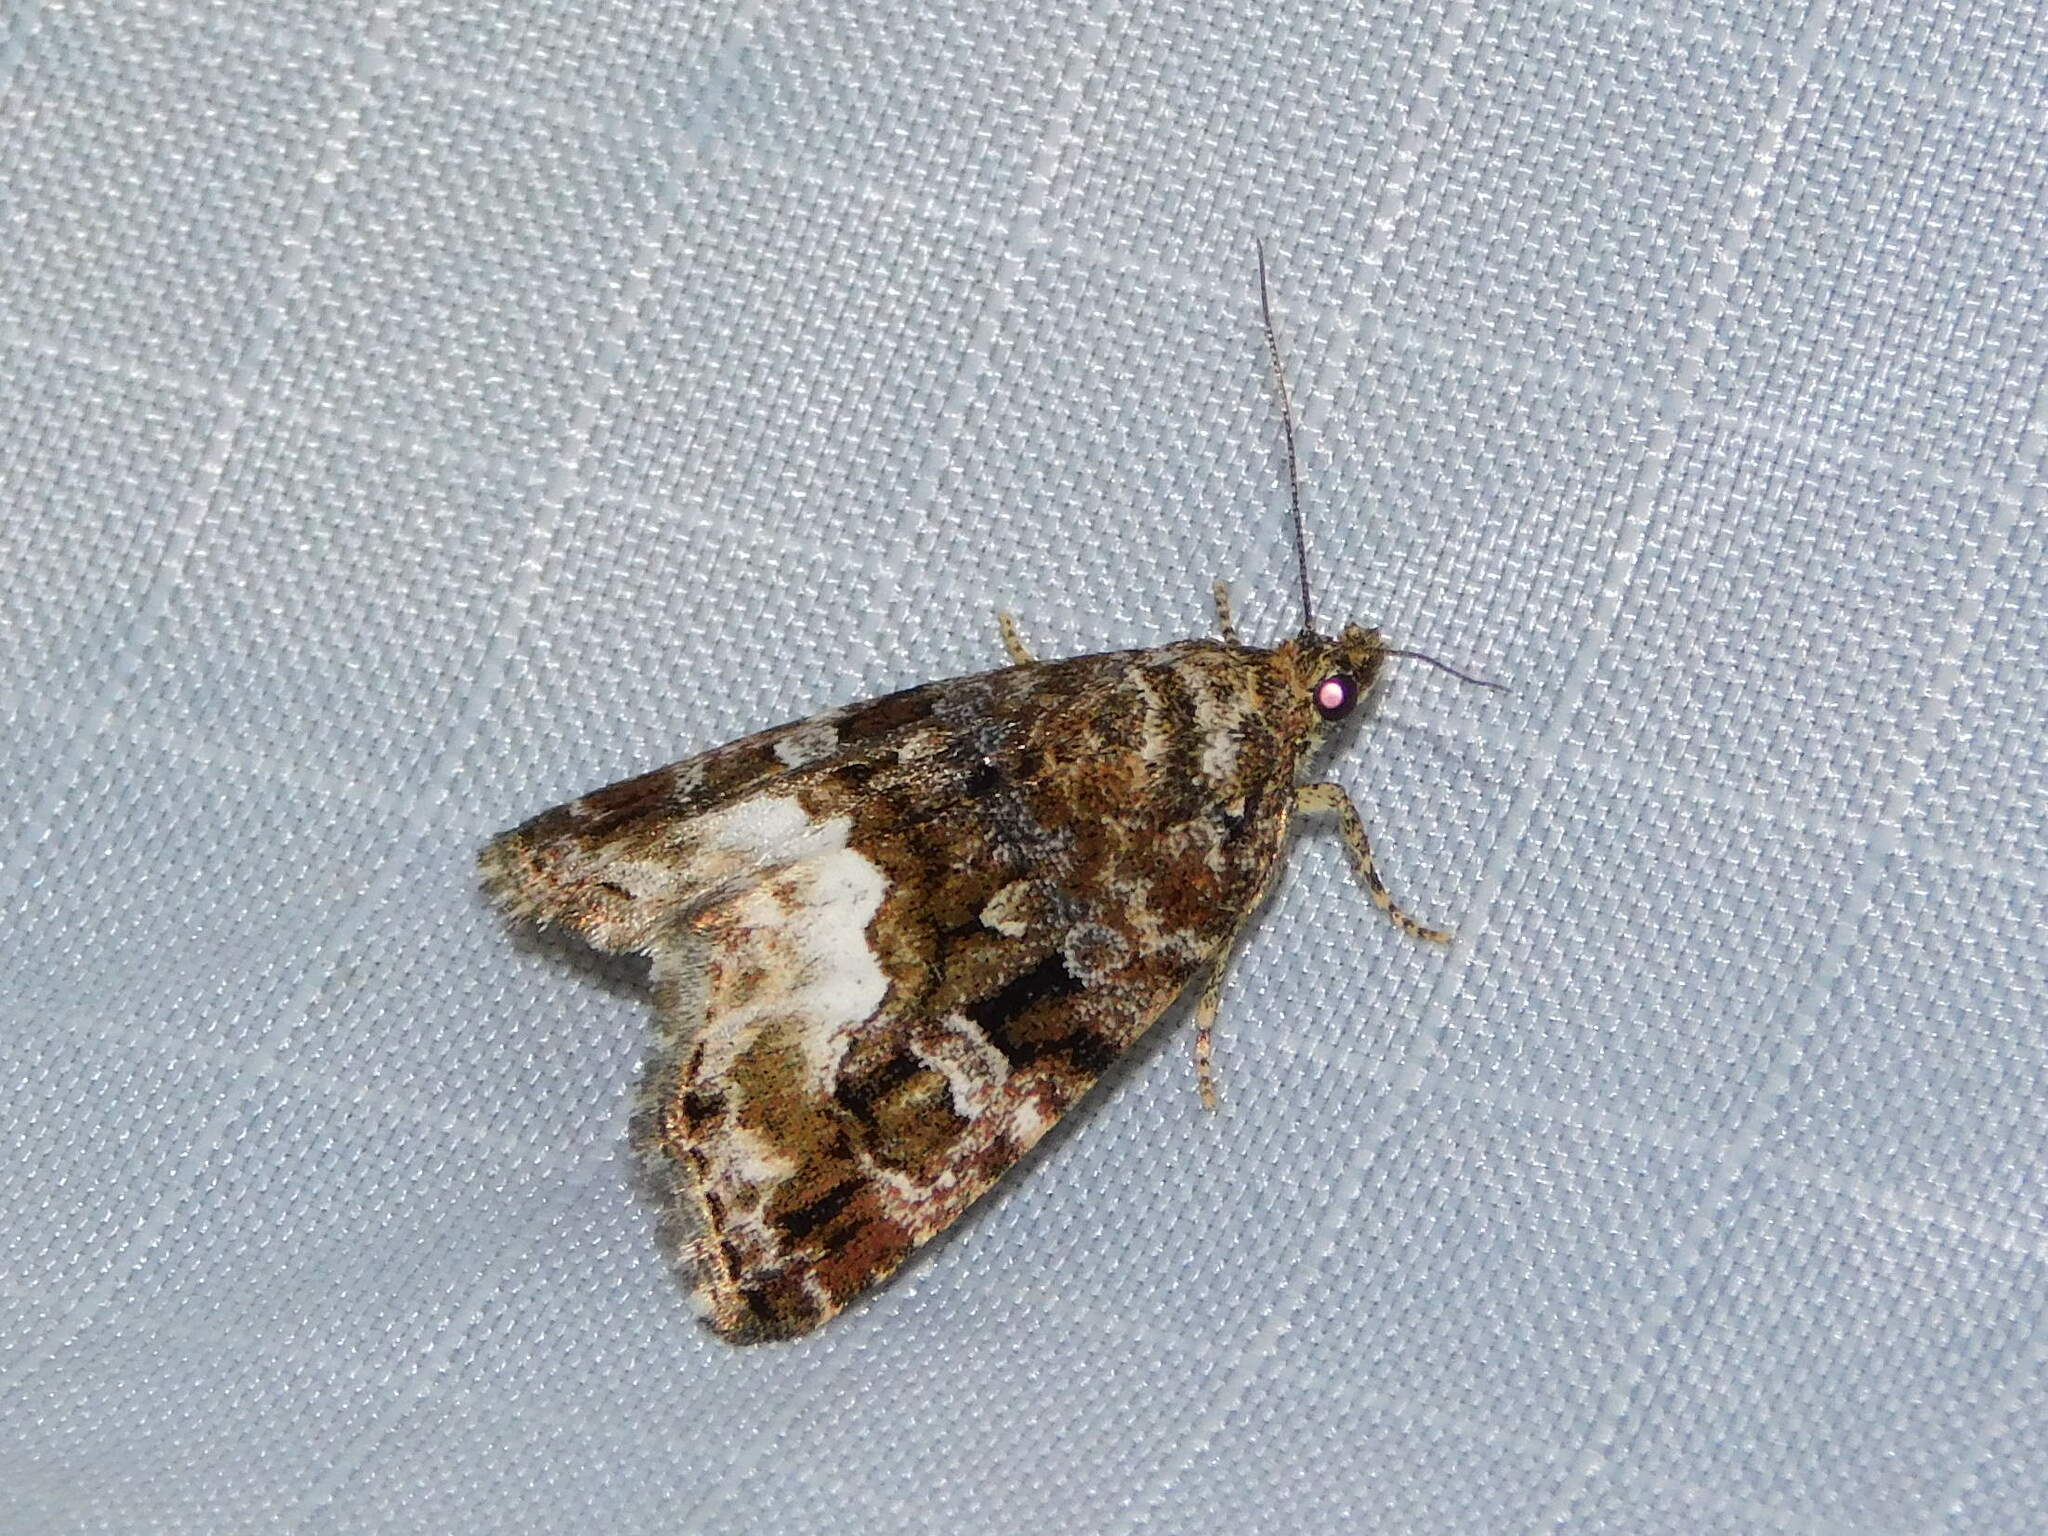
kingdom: Animalia
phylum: Arthropoda
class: Insecta
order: Lepidoptera
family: Noctuidae
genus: Deltote
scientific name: Deltote pygarga
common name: Marbled white spot
